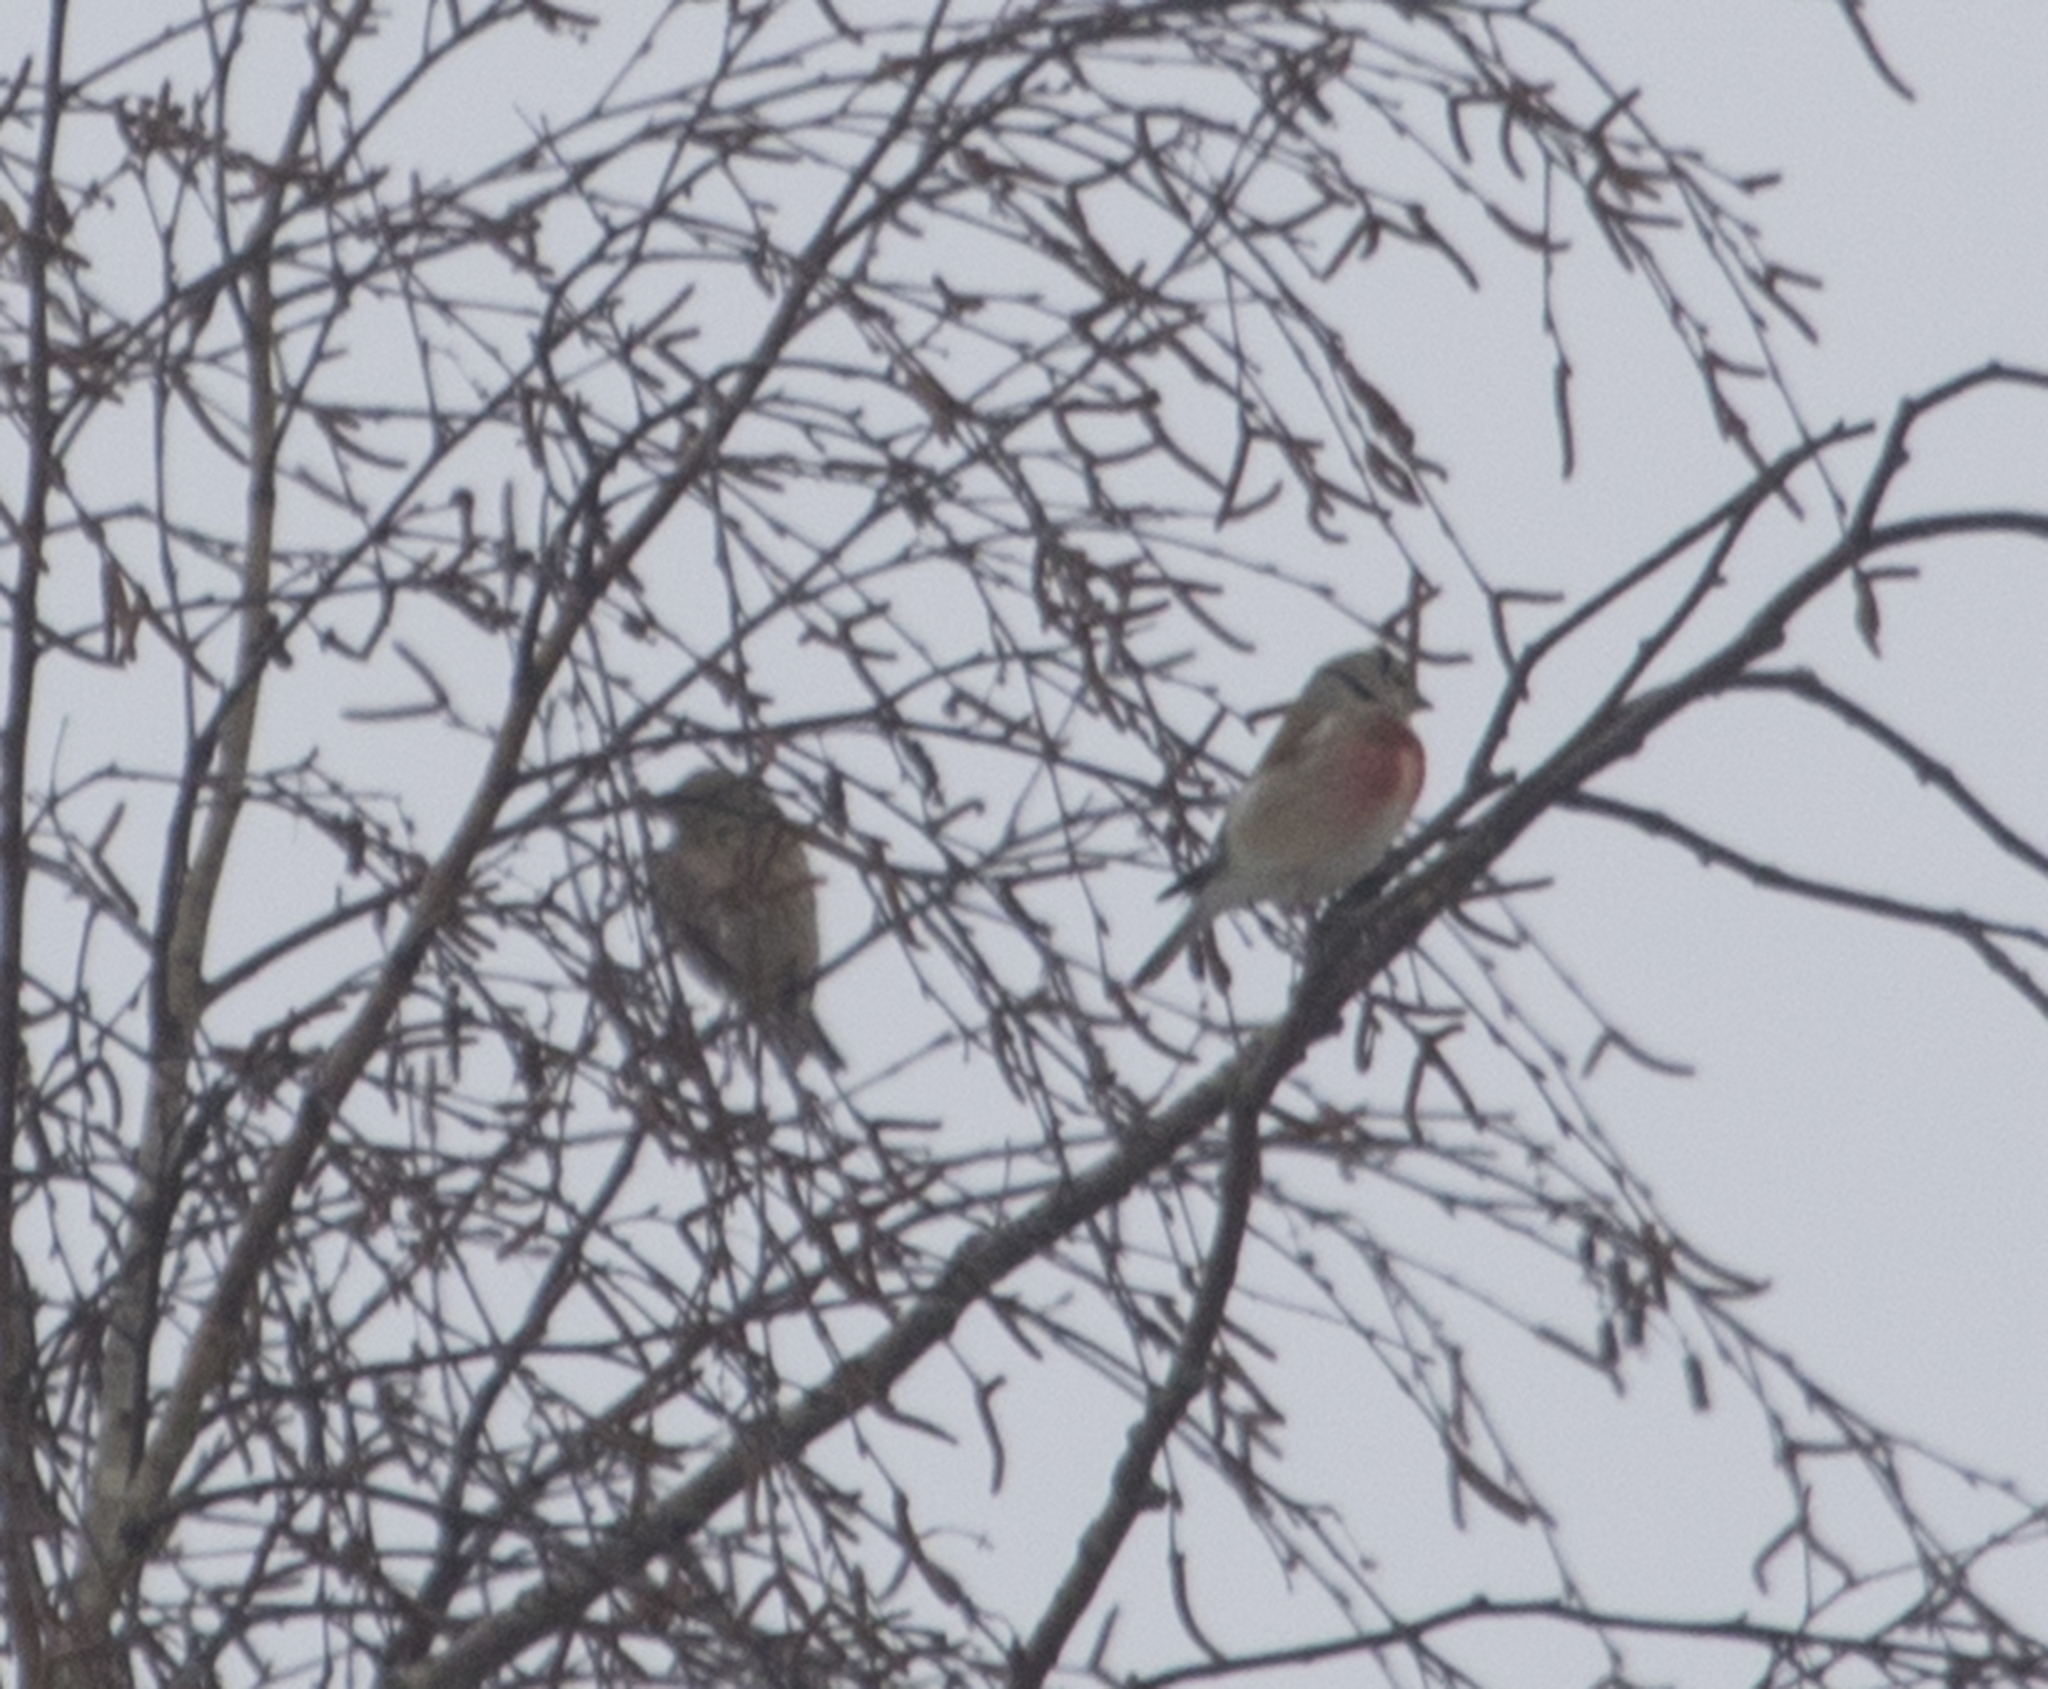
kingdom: Animalia
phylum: Chordata
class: Aves
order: Passeriformes
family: Fringillidae
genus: Linaria
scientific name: Linaria cannabina
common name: Common linnet
